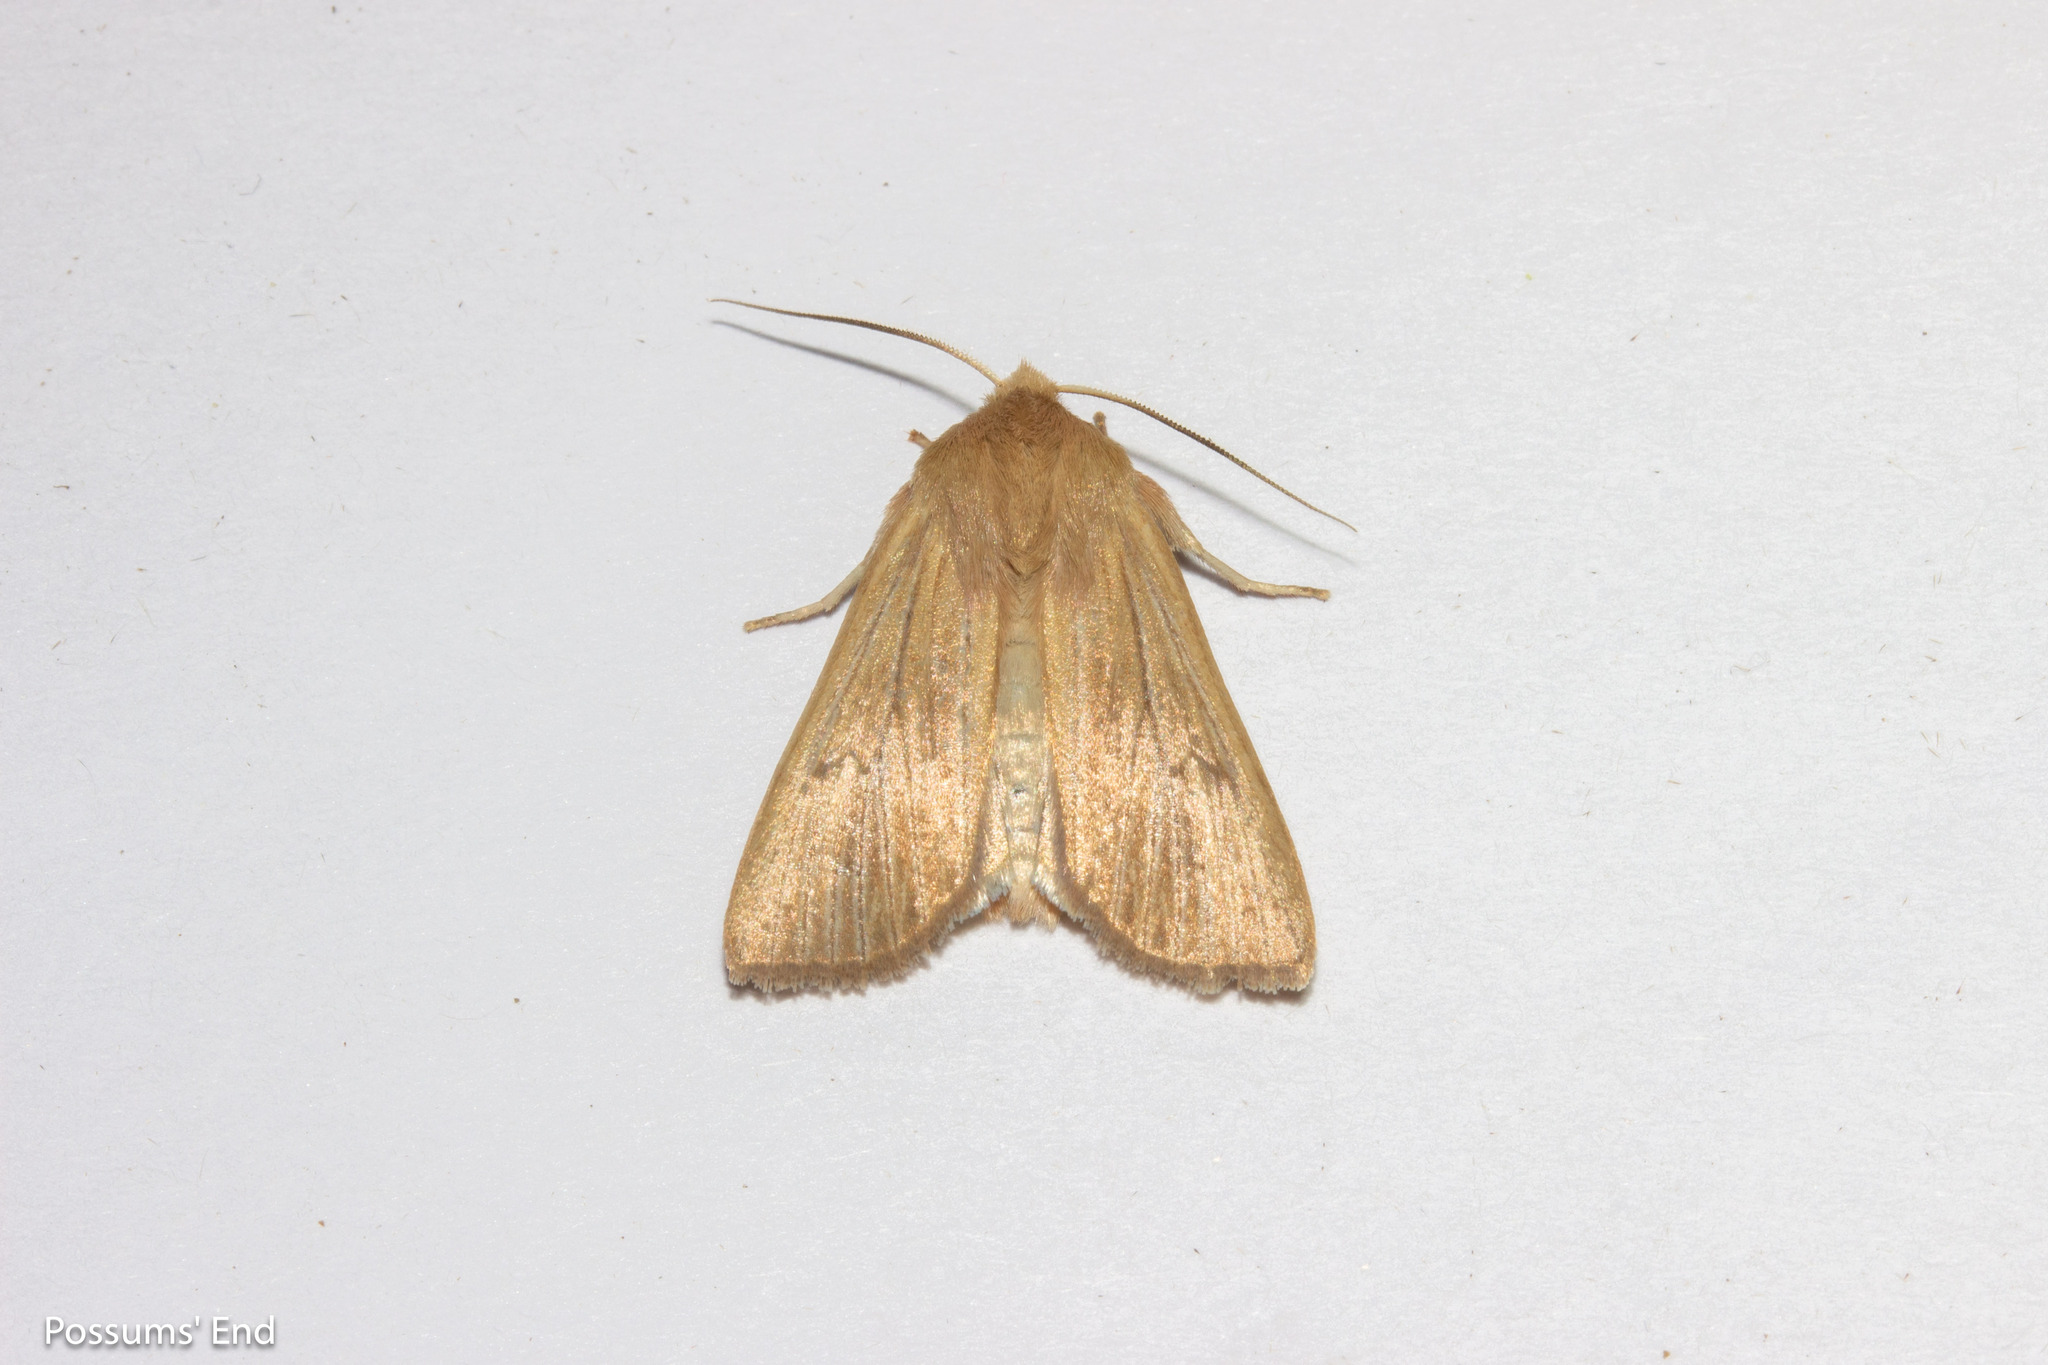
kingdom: Animalia
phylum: Arthropoda
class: Insecta
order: Lepidoptera
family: Noctuidae
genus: Ichneutica
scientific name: Ichneutica arotis
